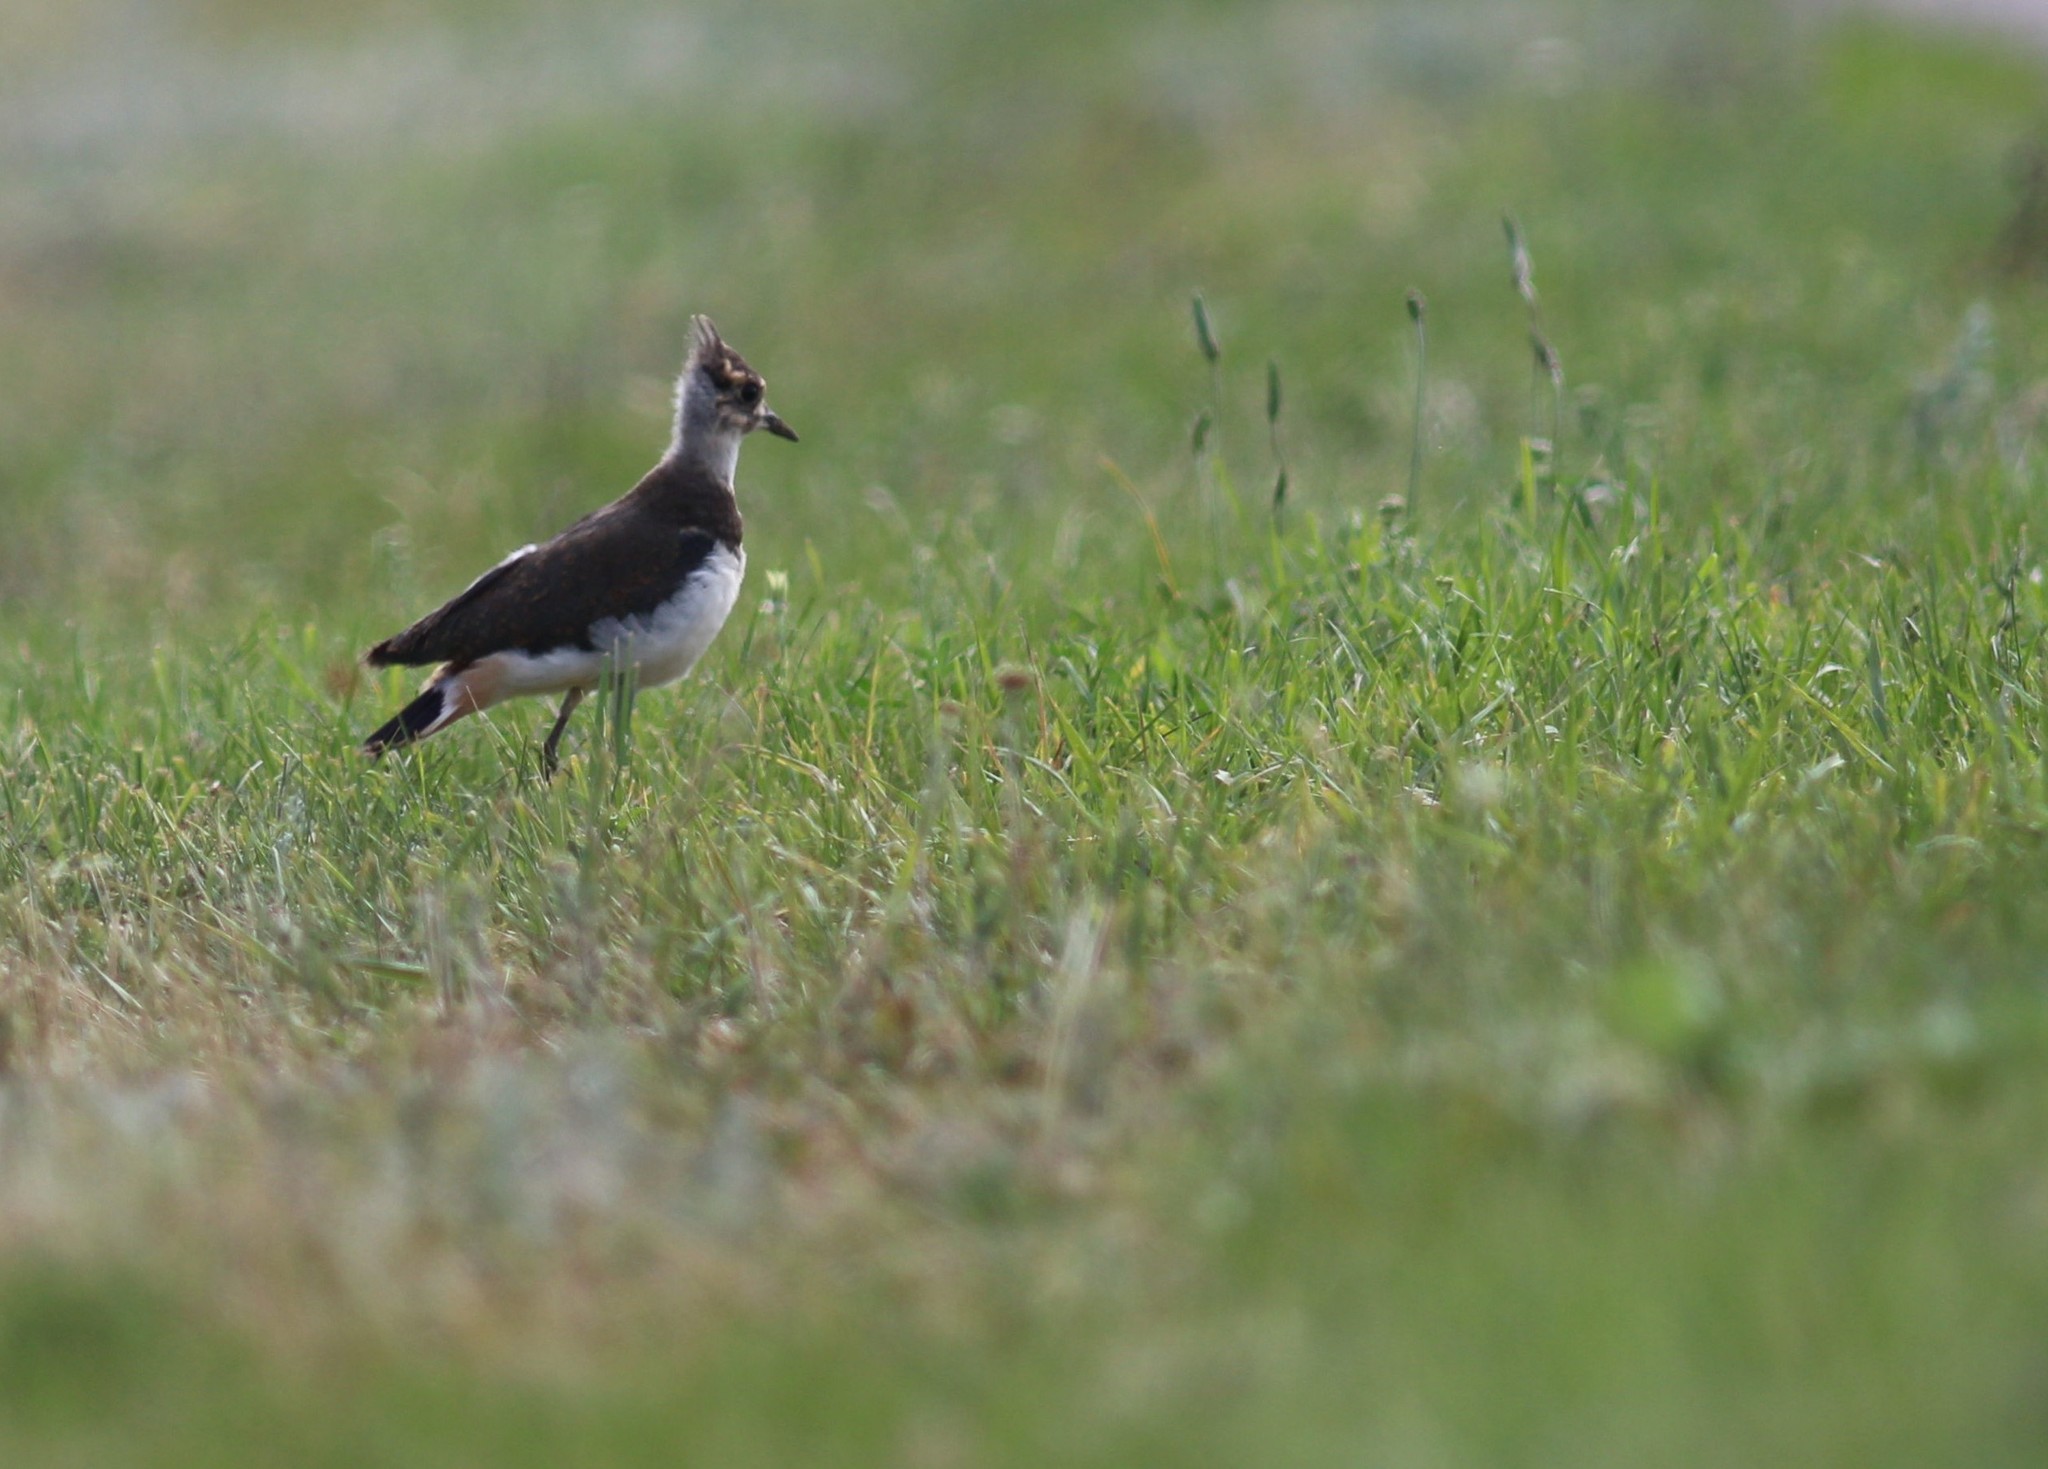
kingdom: Animalia
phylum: Chordata
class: Aves
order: Charadriiformes
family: Charadriidae
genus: Vanellus
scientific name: Vanellus vanellus
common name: Northern lapwing
